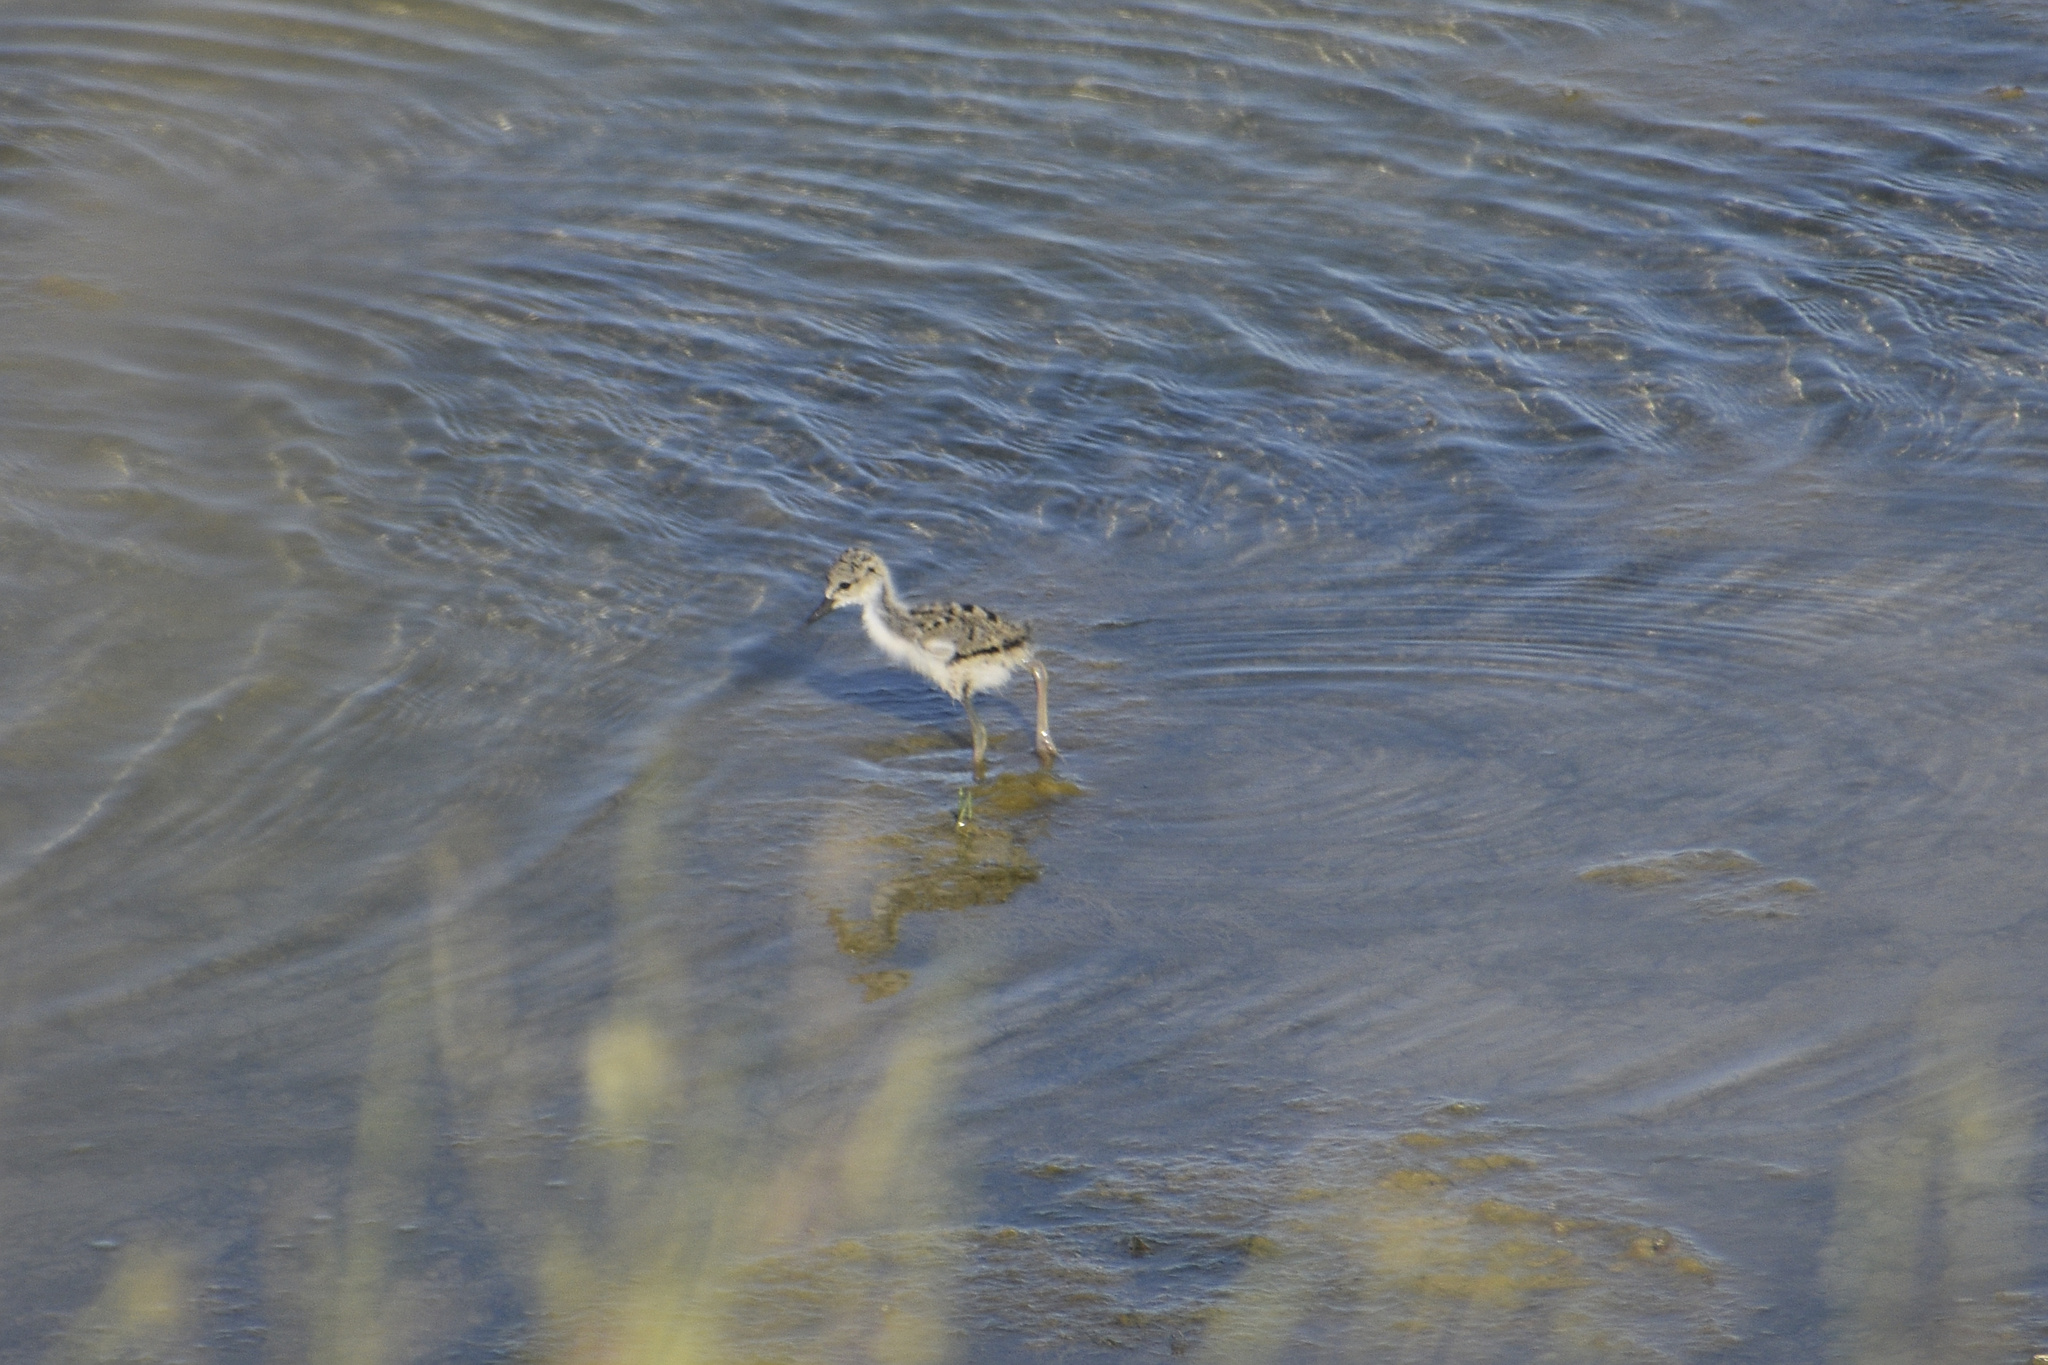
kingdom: Animalia
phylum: Chordata
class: Aves
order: Charadriiformes
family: Recurvirostridae
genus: Himantopus
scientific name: Himantopus mexicanus
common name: Black-necked stilt
